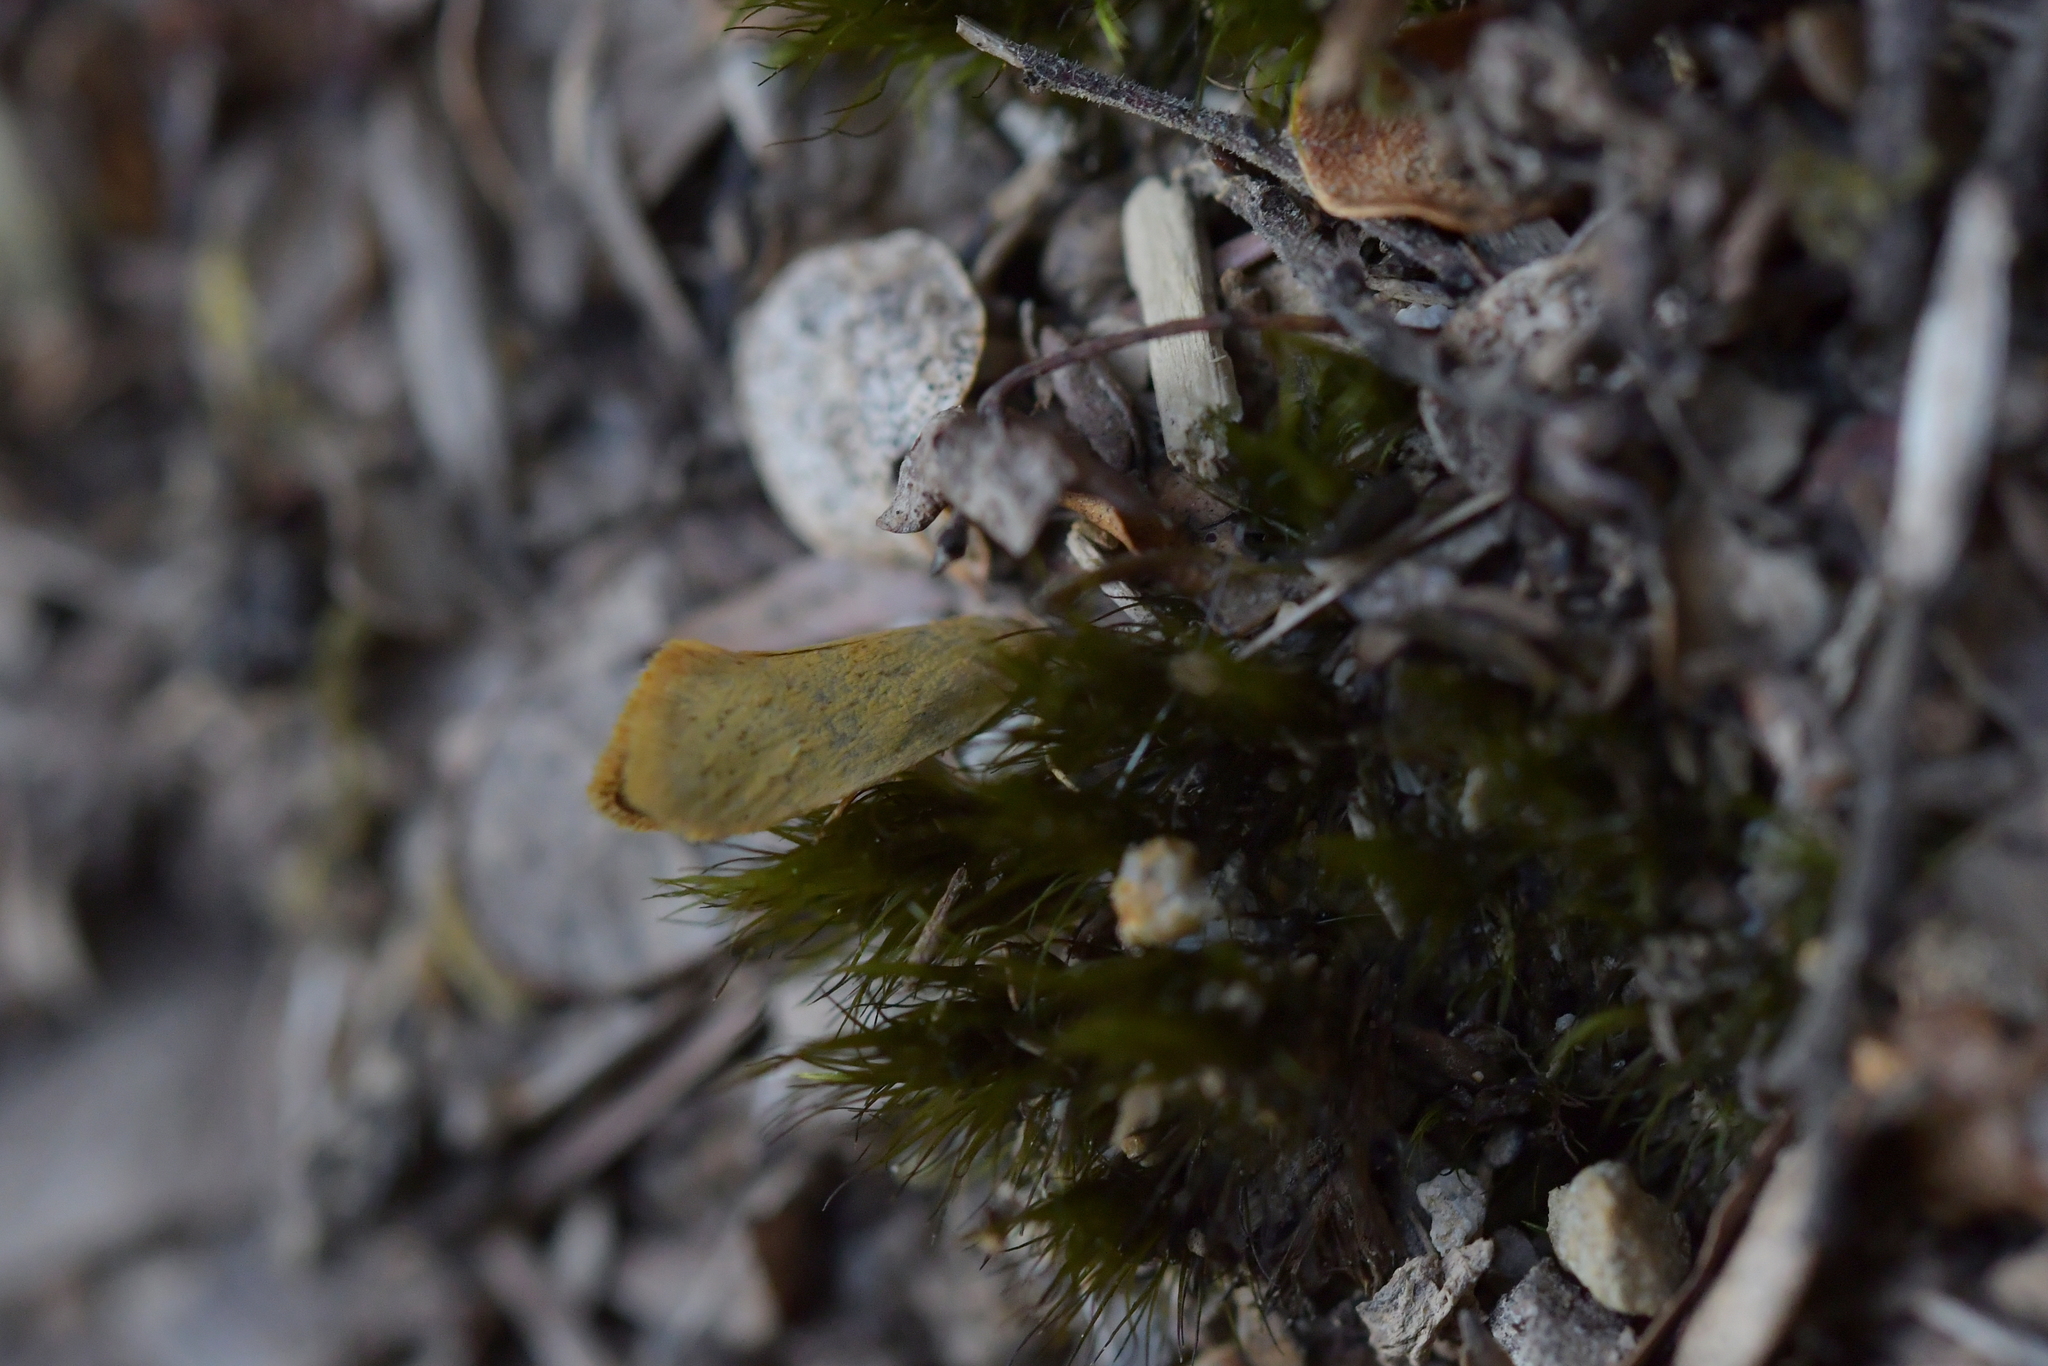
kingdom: Animalia
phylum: Arthropoda
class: Insecta
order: Lepidoptera
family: Oecophoridae
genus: Tingena
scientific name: Tingena armigerella
